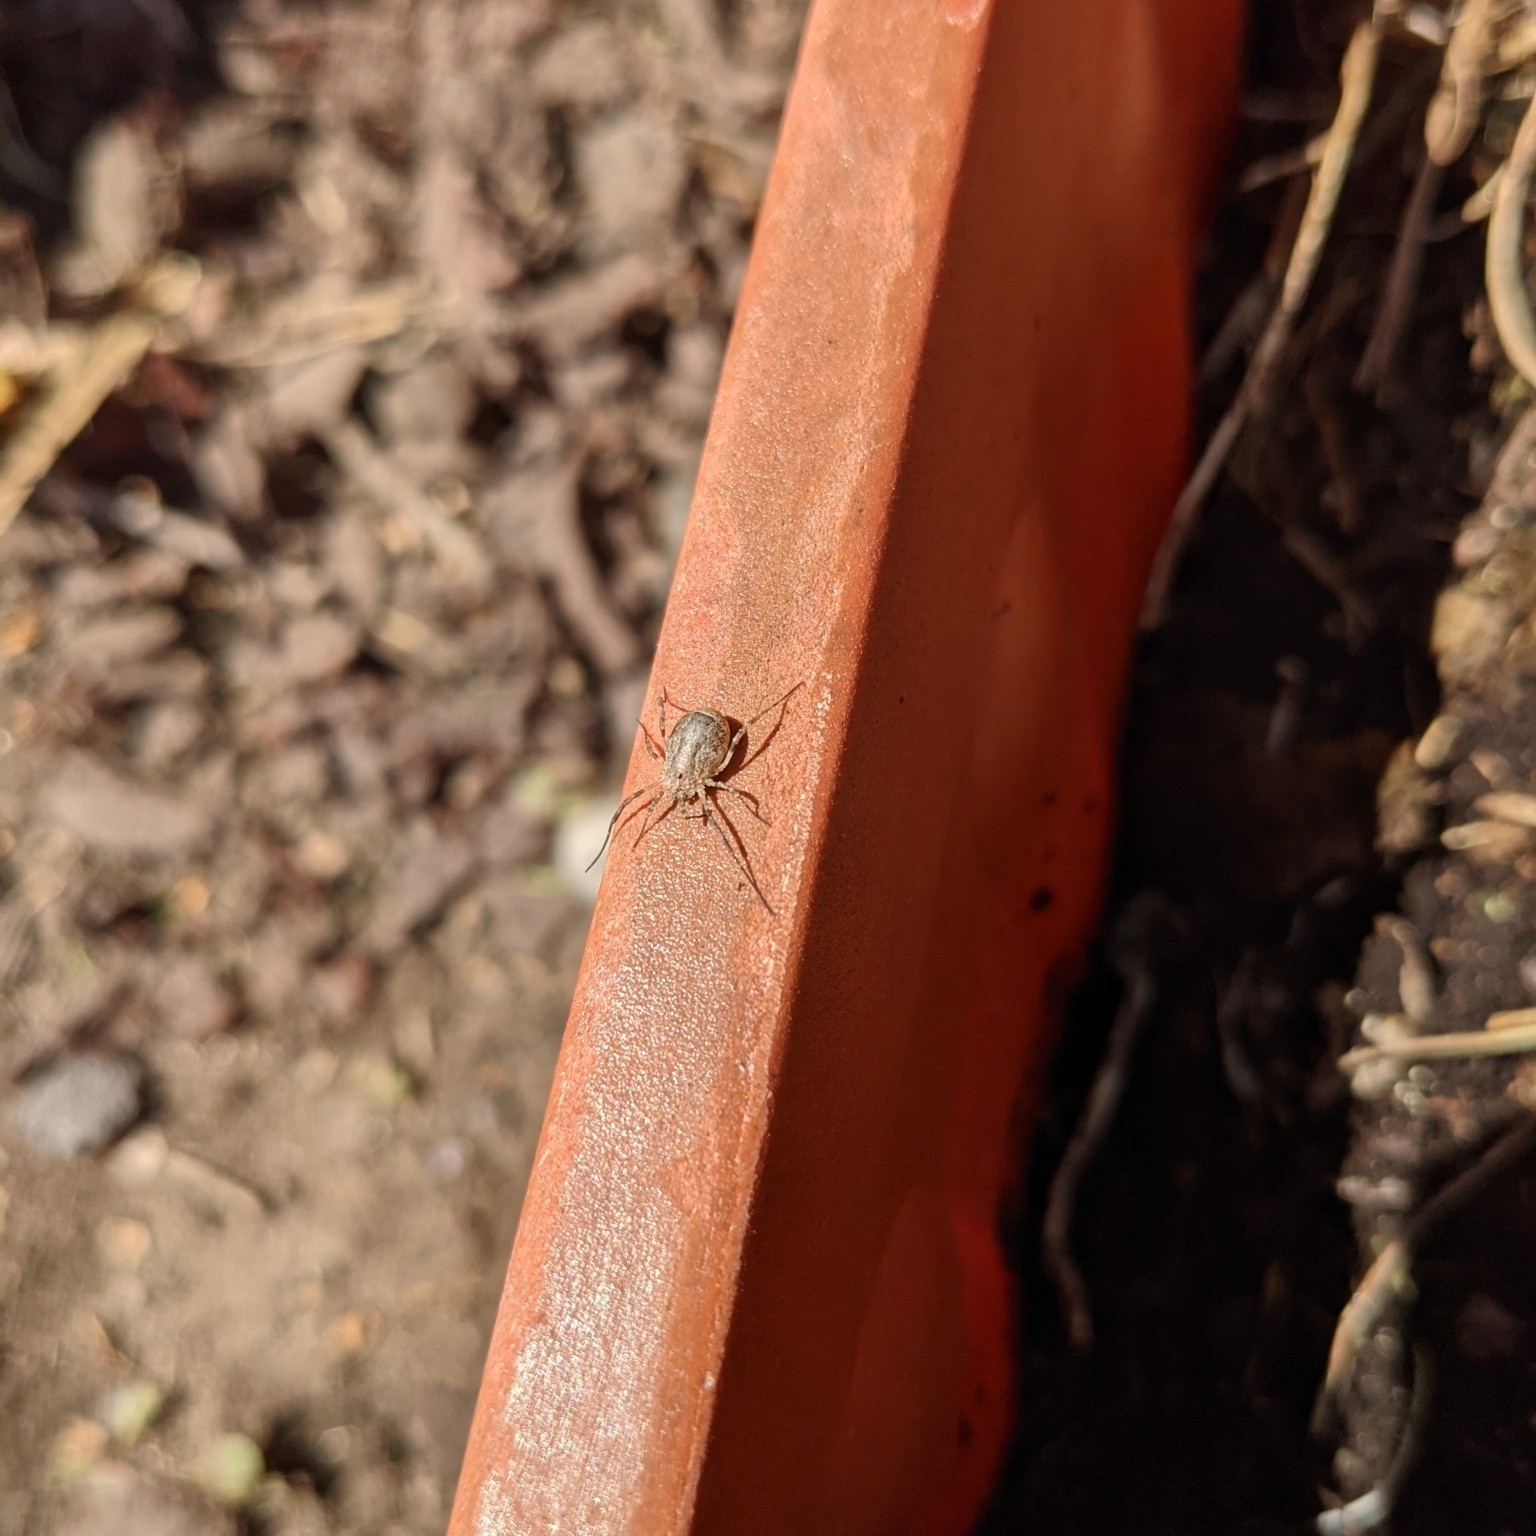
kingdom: Animalia
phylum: Arthropoda
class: Arachnida
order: Opiliones
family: Phalangiidae
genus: Odiellus
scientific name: Odiellus spinosus
